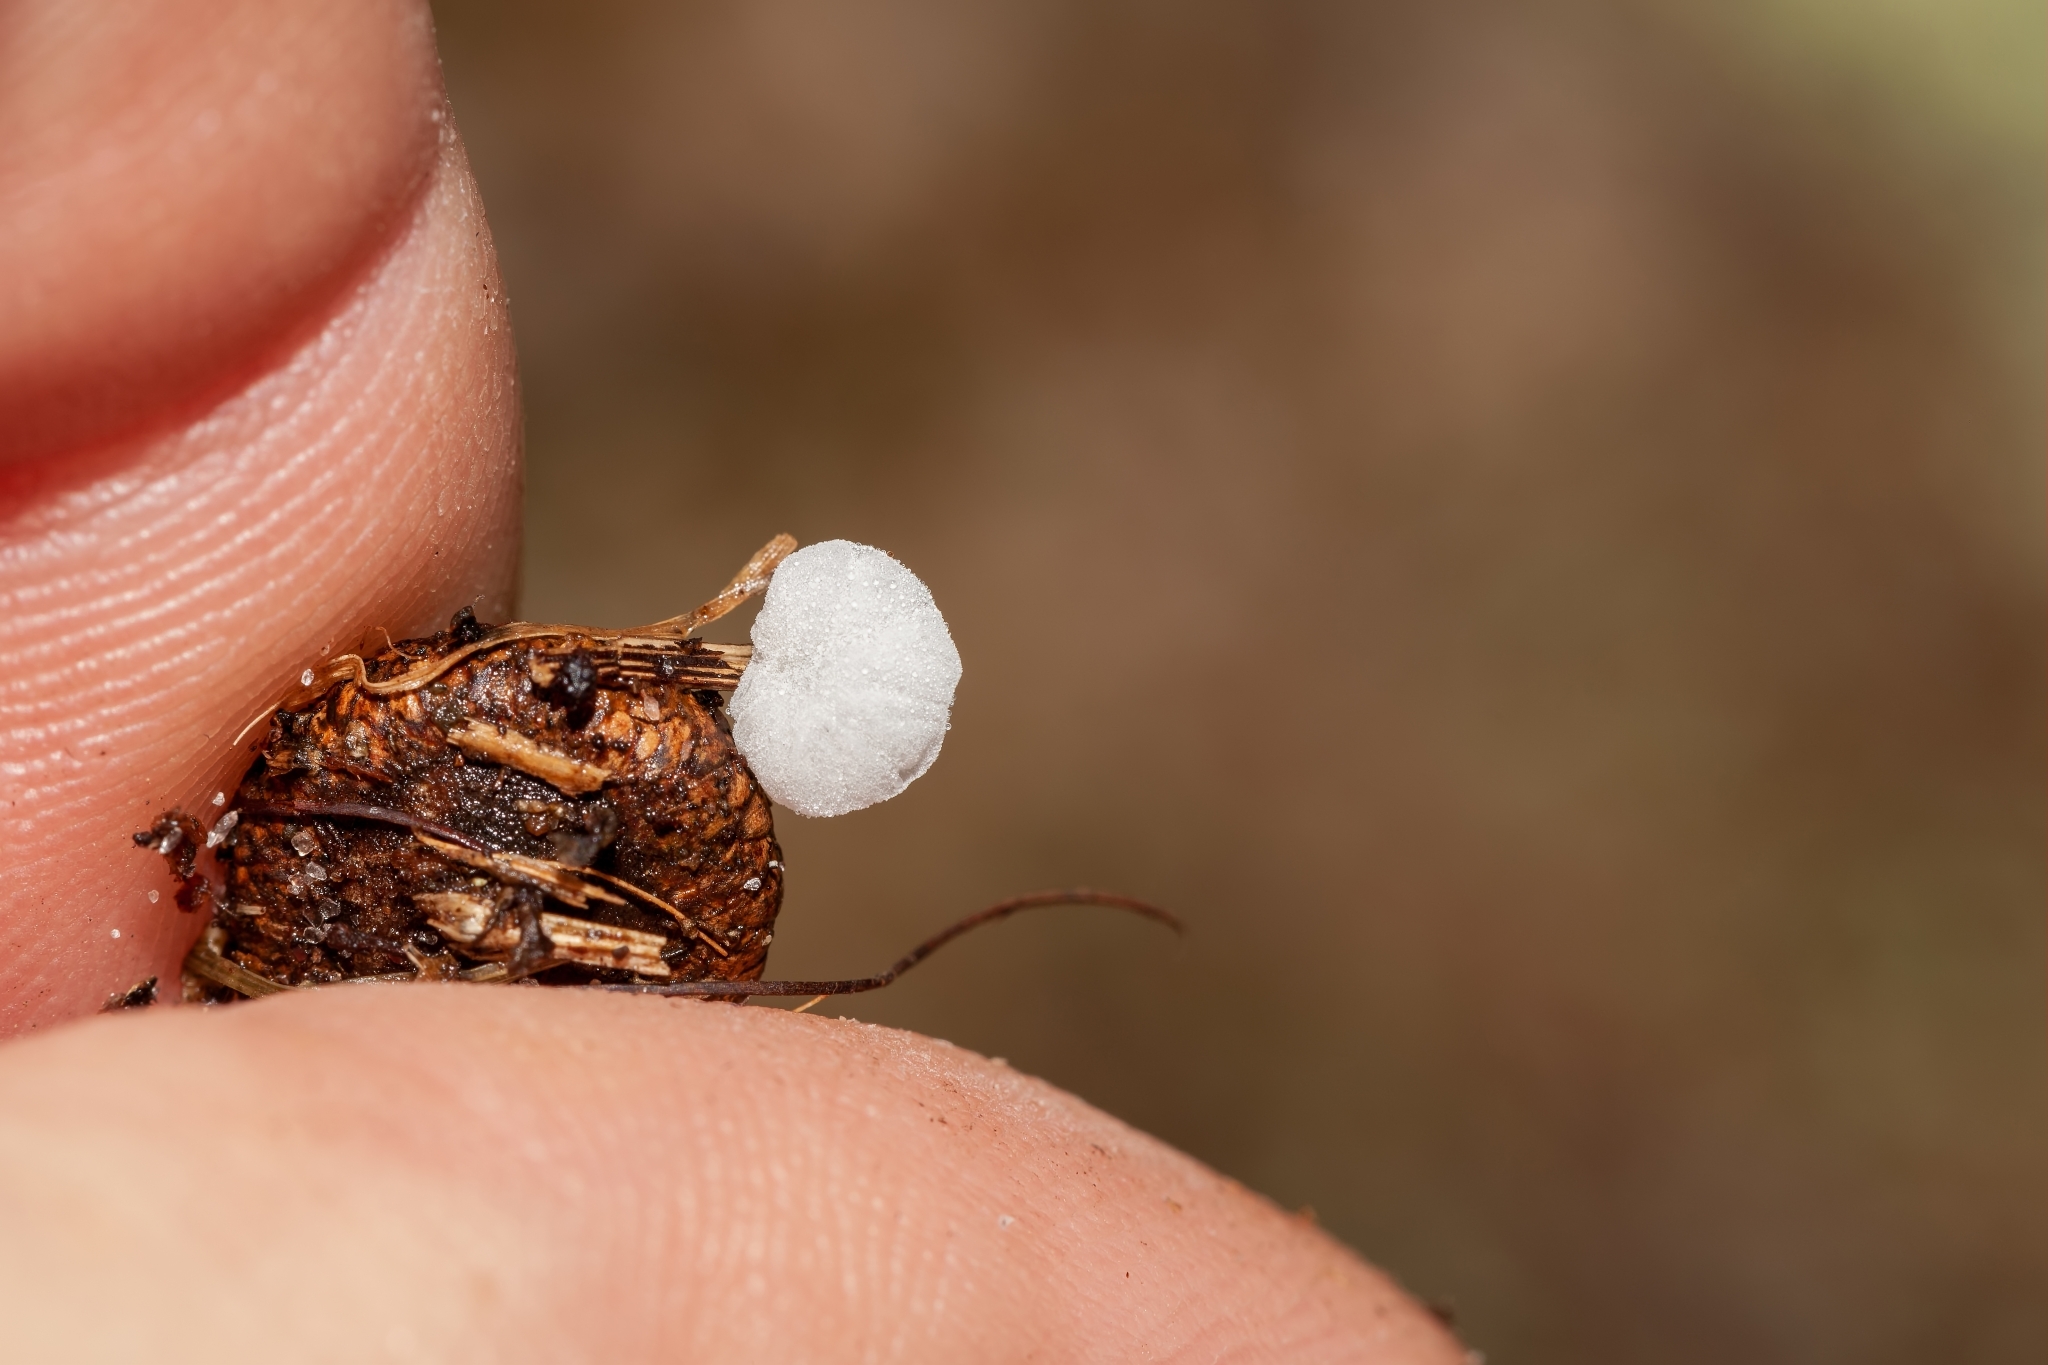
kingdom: Fungi
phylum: Basidiomycota
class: Agaricomycetes
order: Agaricales
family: Marasmiaceae
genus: Tetrapyrgos
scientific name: Tetrapyrgos nigripes
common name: Black-stalked marasmius
